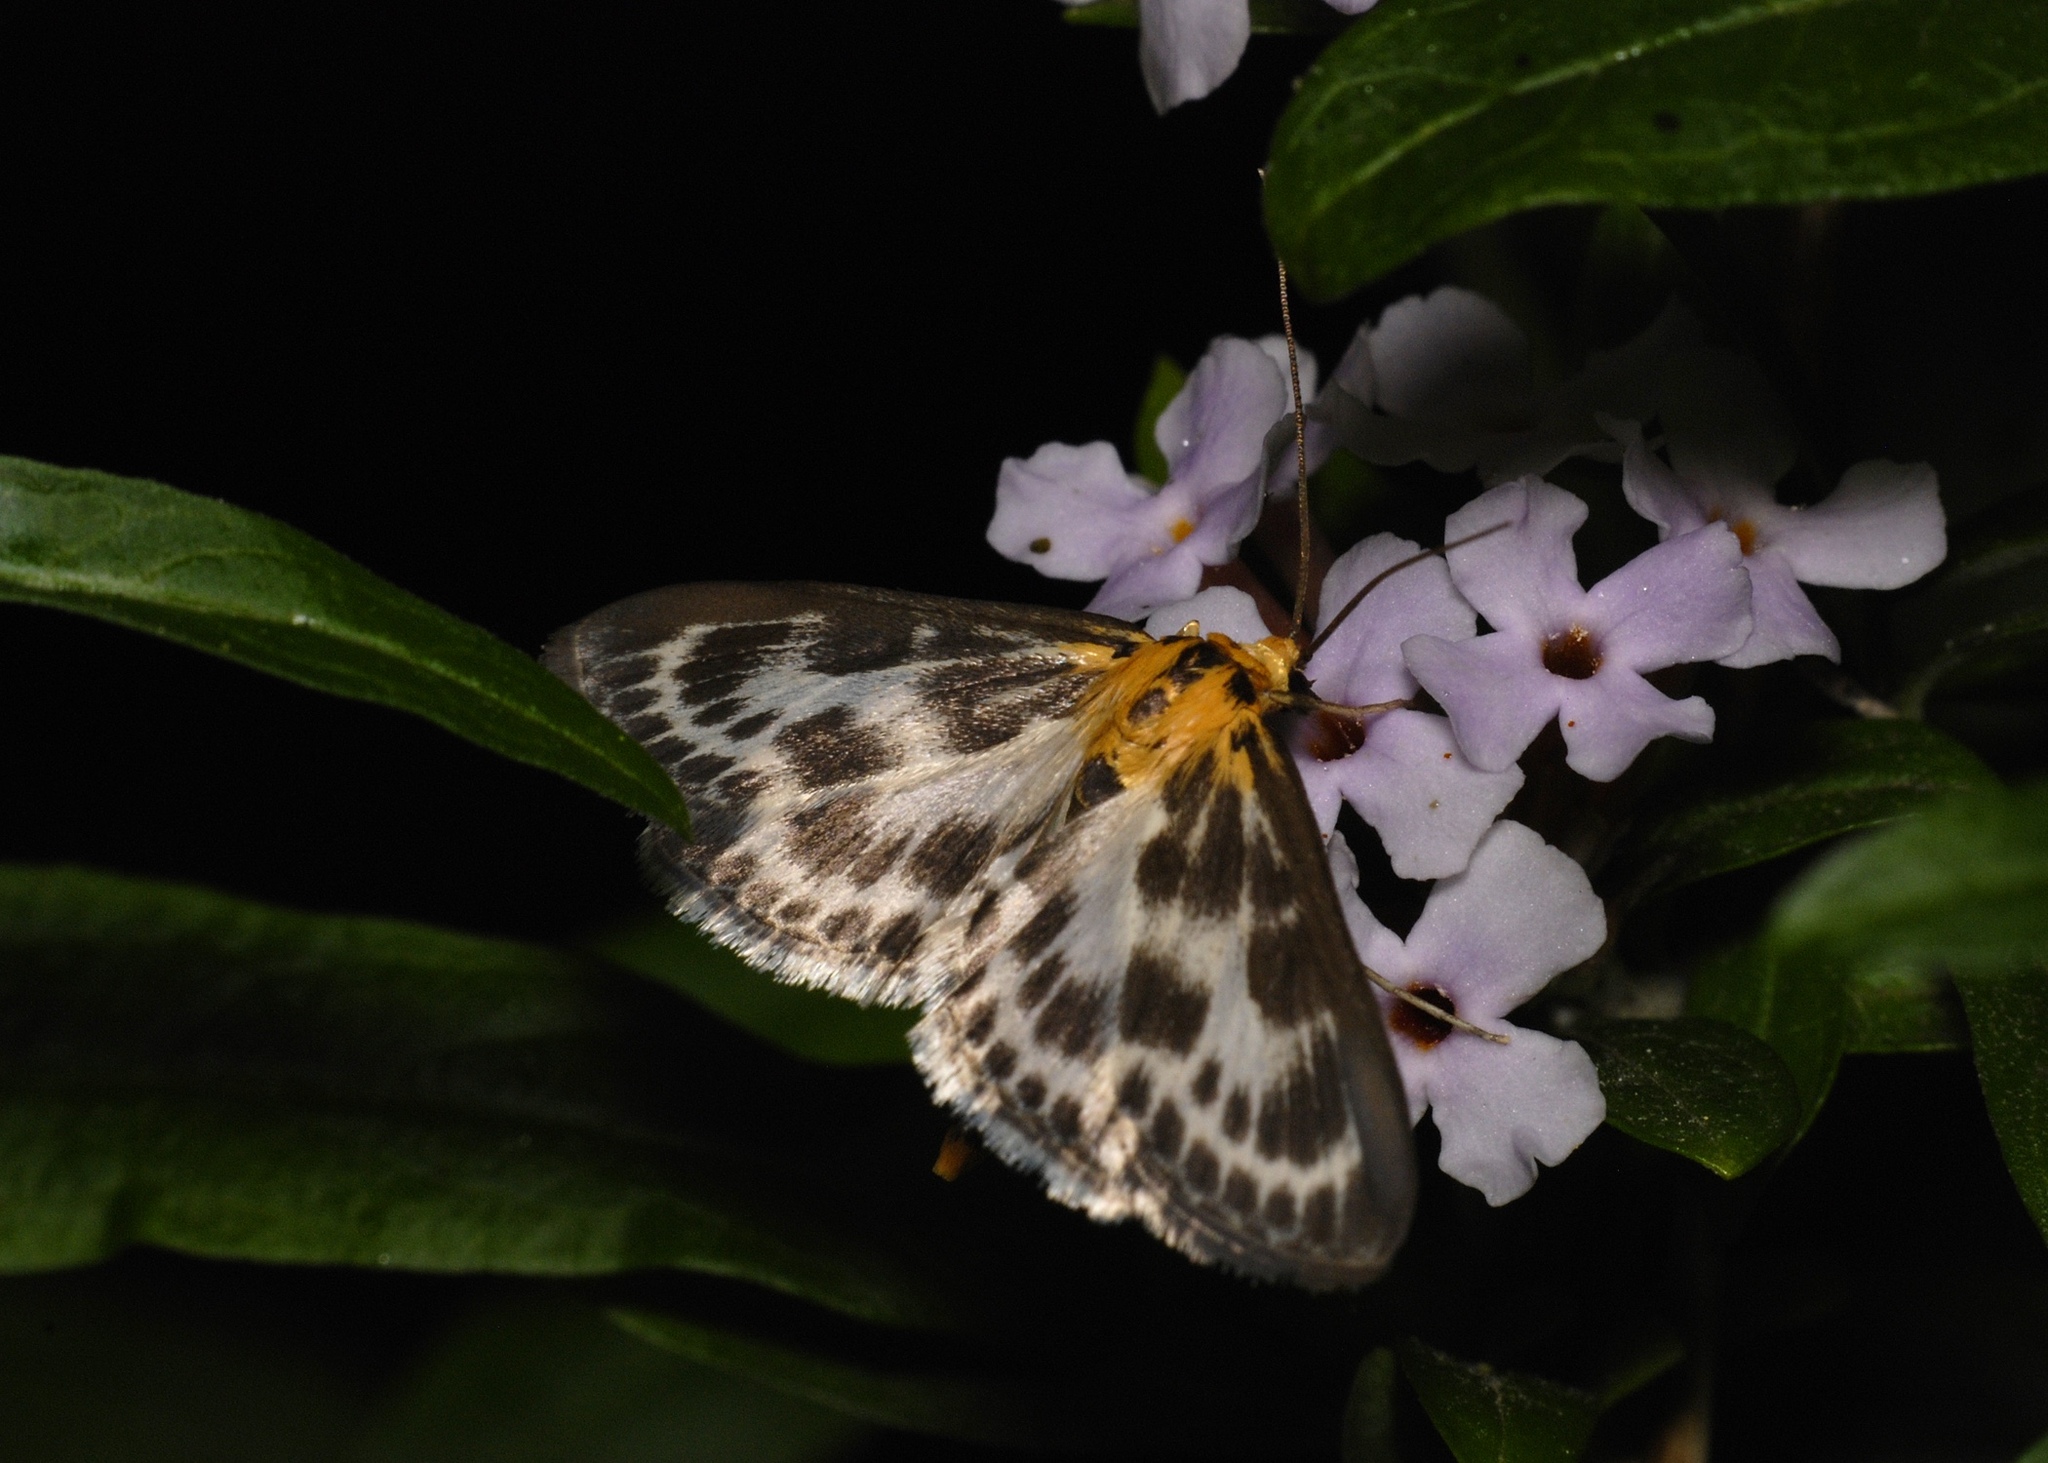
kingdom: Animalia
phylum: Arthropoda
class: Insecta
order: Lepidoptera
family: Crambidae
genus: Anania
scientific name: Anania hortulata
